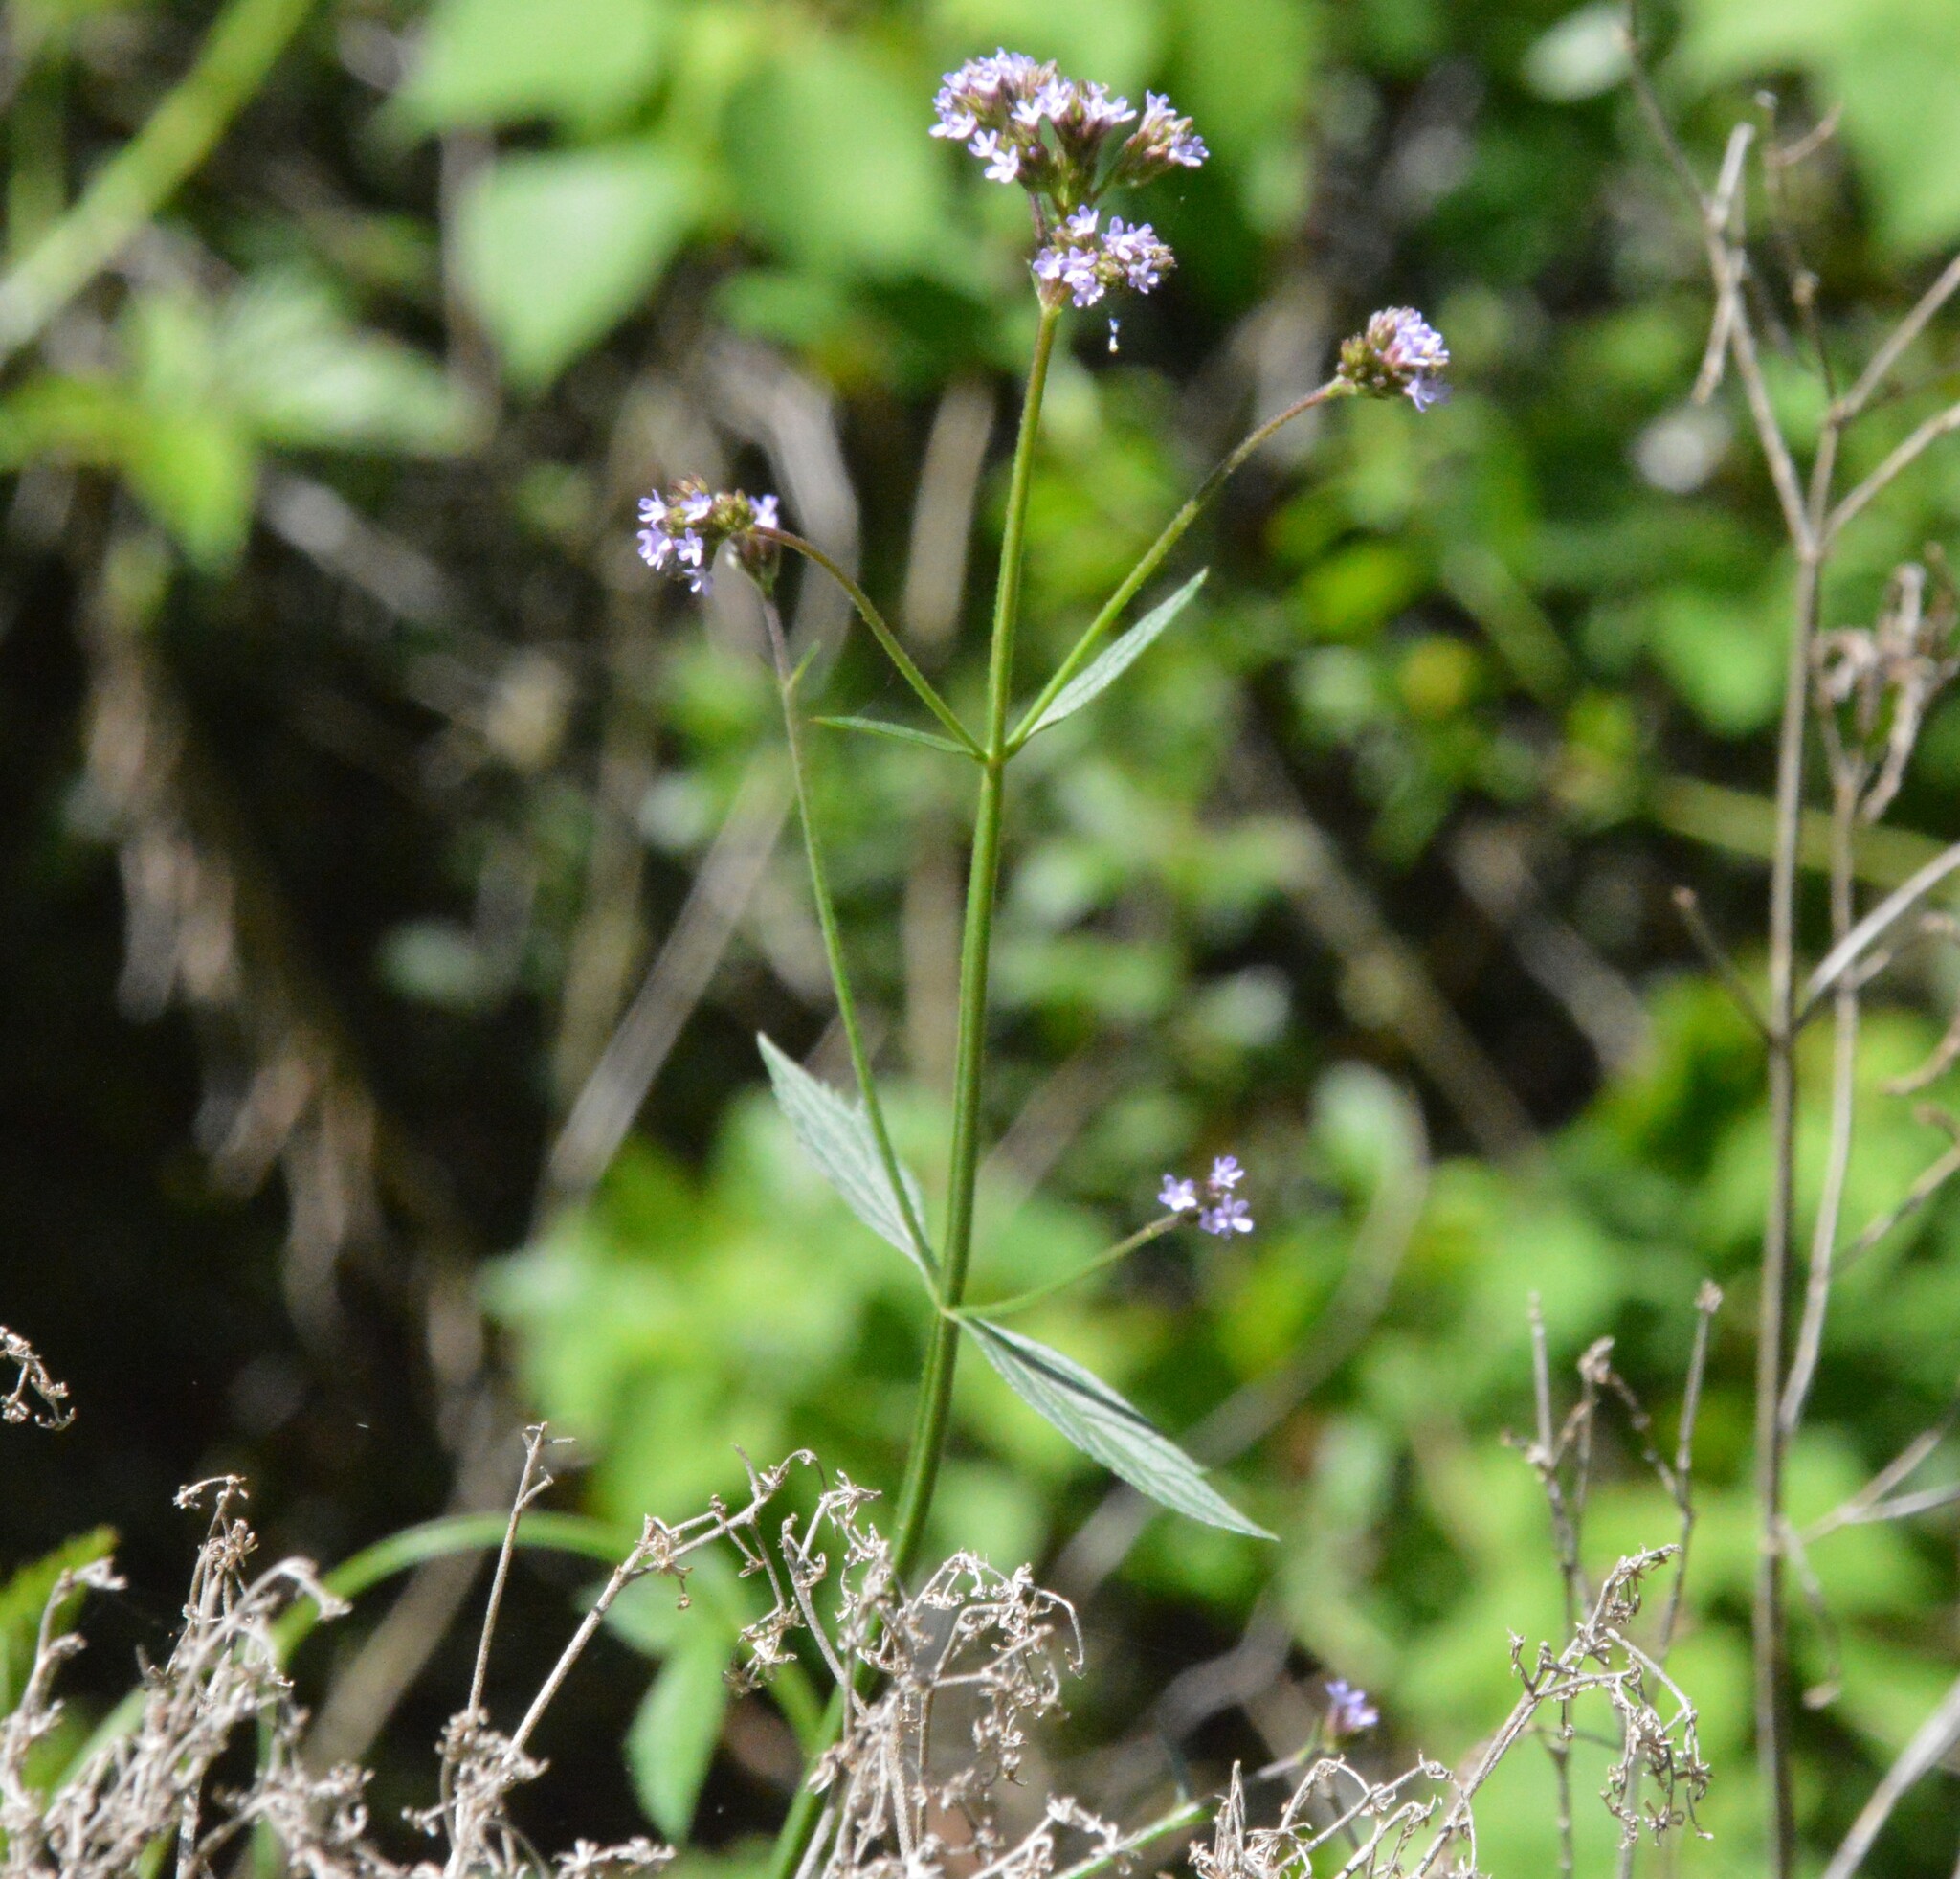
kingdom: Plantae
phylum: Tracheophyta
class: Magnoliopsida
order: Lamiales
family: Verbenaceae
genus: Verbena
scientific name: Verbena brasiliensis
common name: Brazilian vervain
